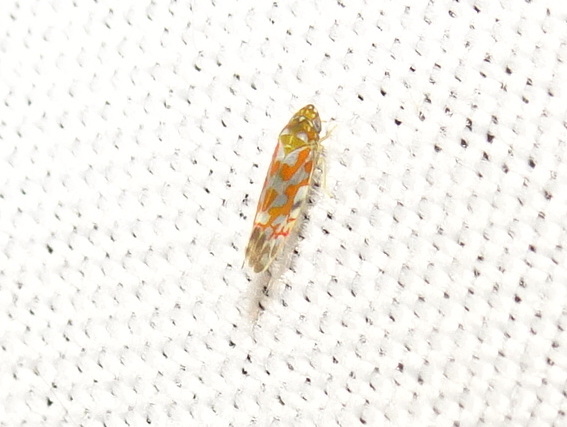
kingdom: Animalia
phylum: Arthropoda
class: Insecta
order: Hemiptera
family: Cicadellidae
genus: Erythroneura
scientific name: Erythroneura rubrella
